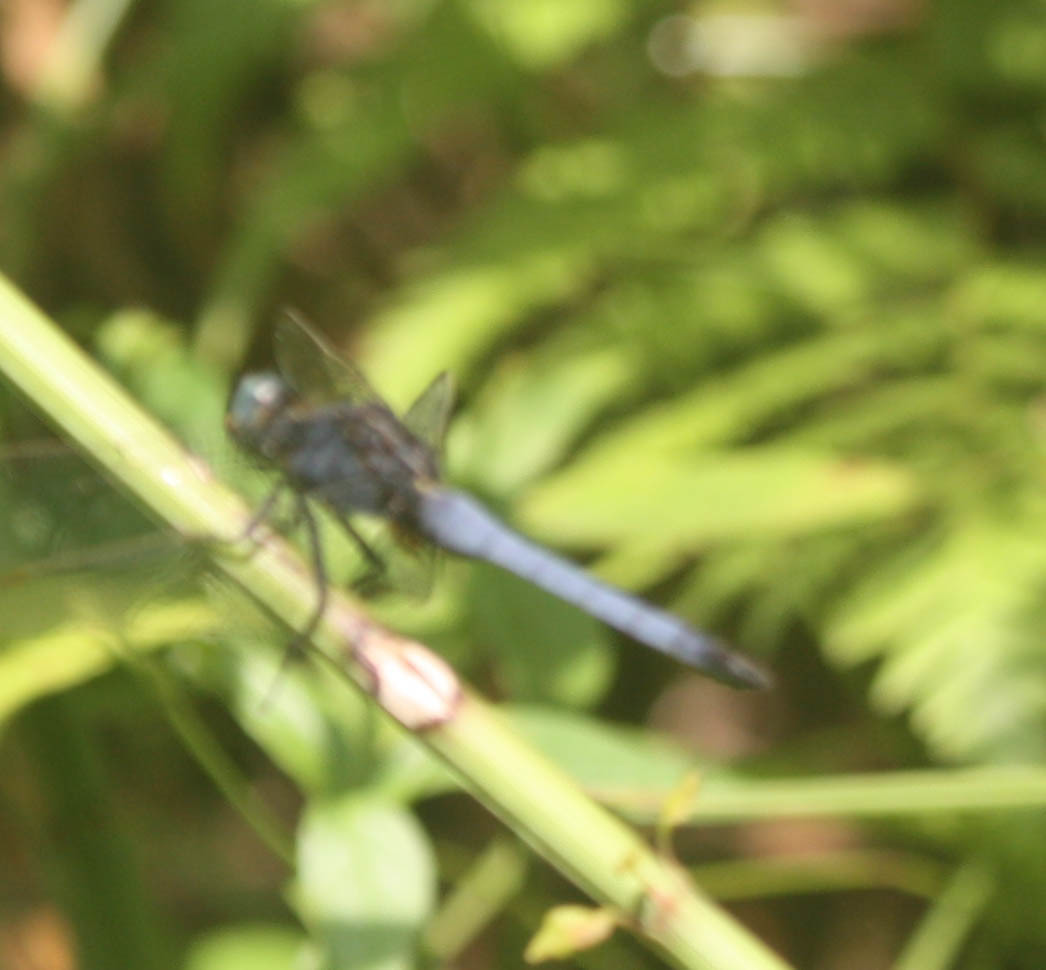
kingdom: Animalia
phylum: Arthropoda
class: Insecta
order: Odonata
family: Libellulidae
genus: Orthetrum
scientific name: Orthetrum glaucum
